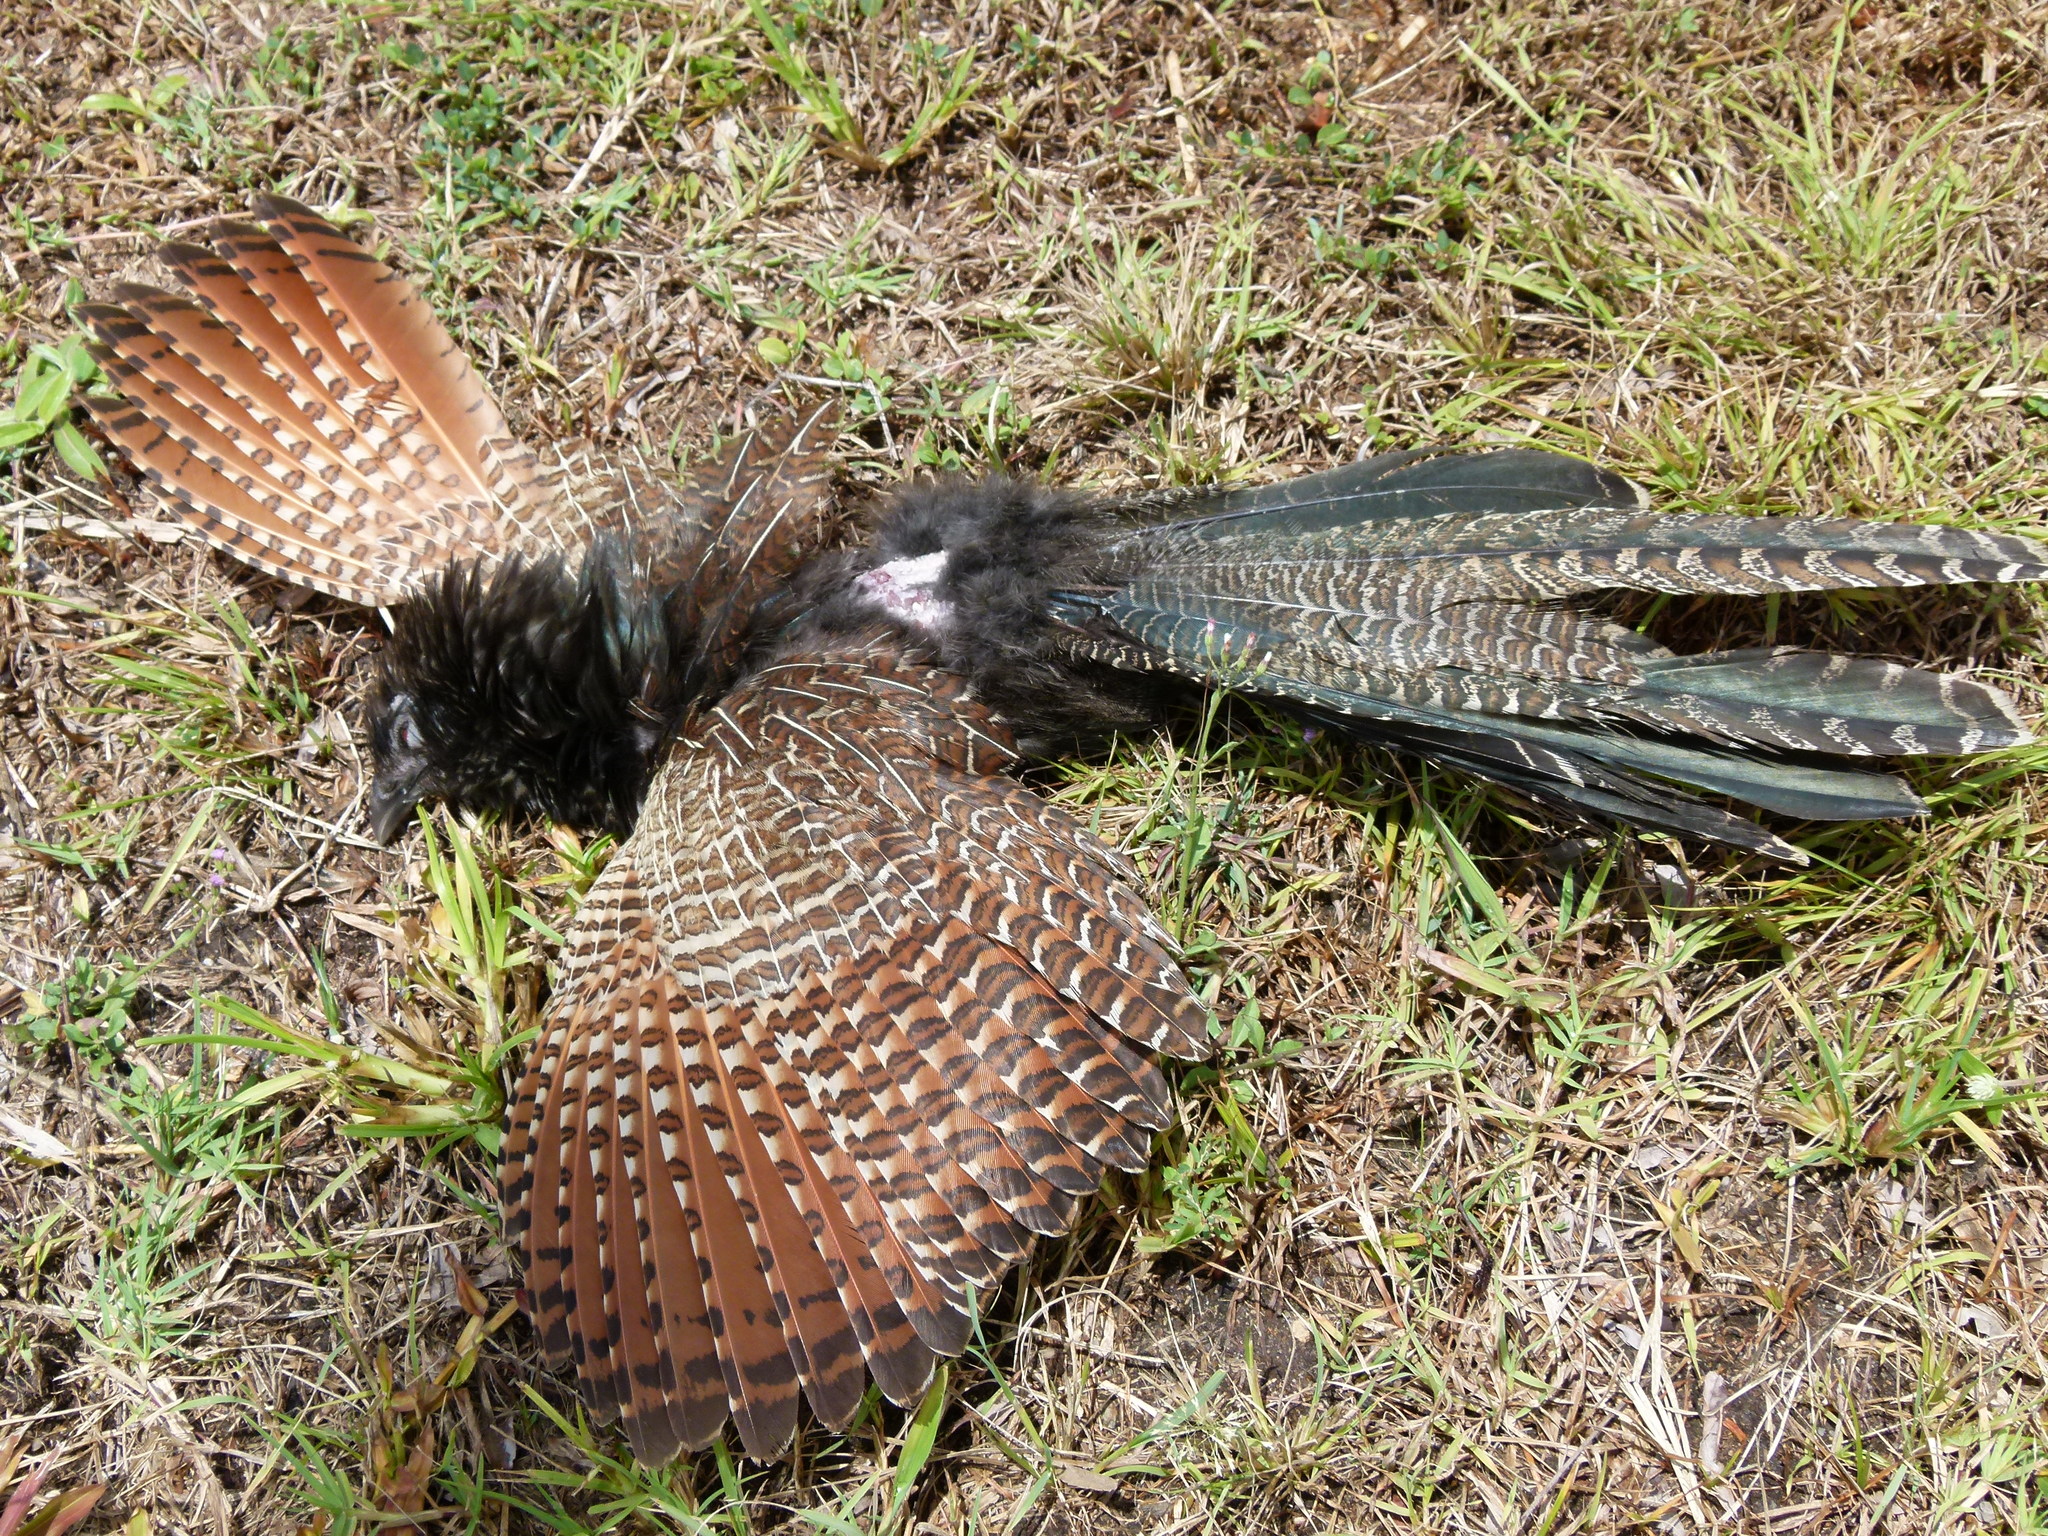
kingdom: Animalia
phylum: Chordata
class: Aves
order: Cuculiformes
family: Cuculidae
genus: Centropus
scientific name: Centropus phasianinus
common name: Pheasant coucal
